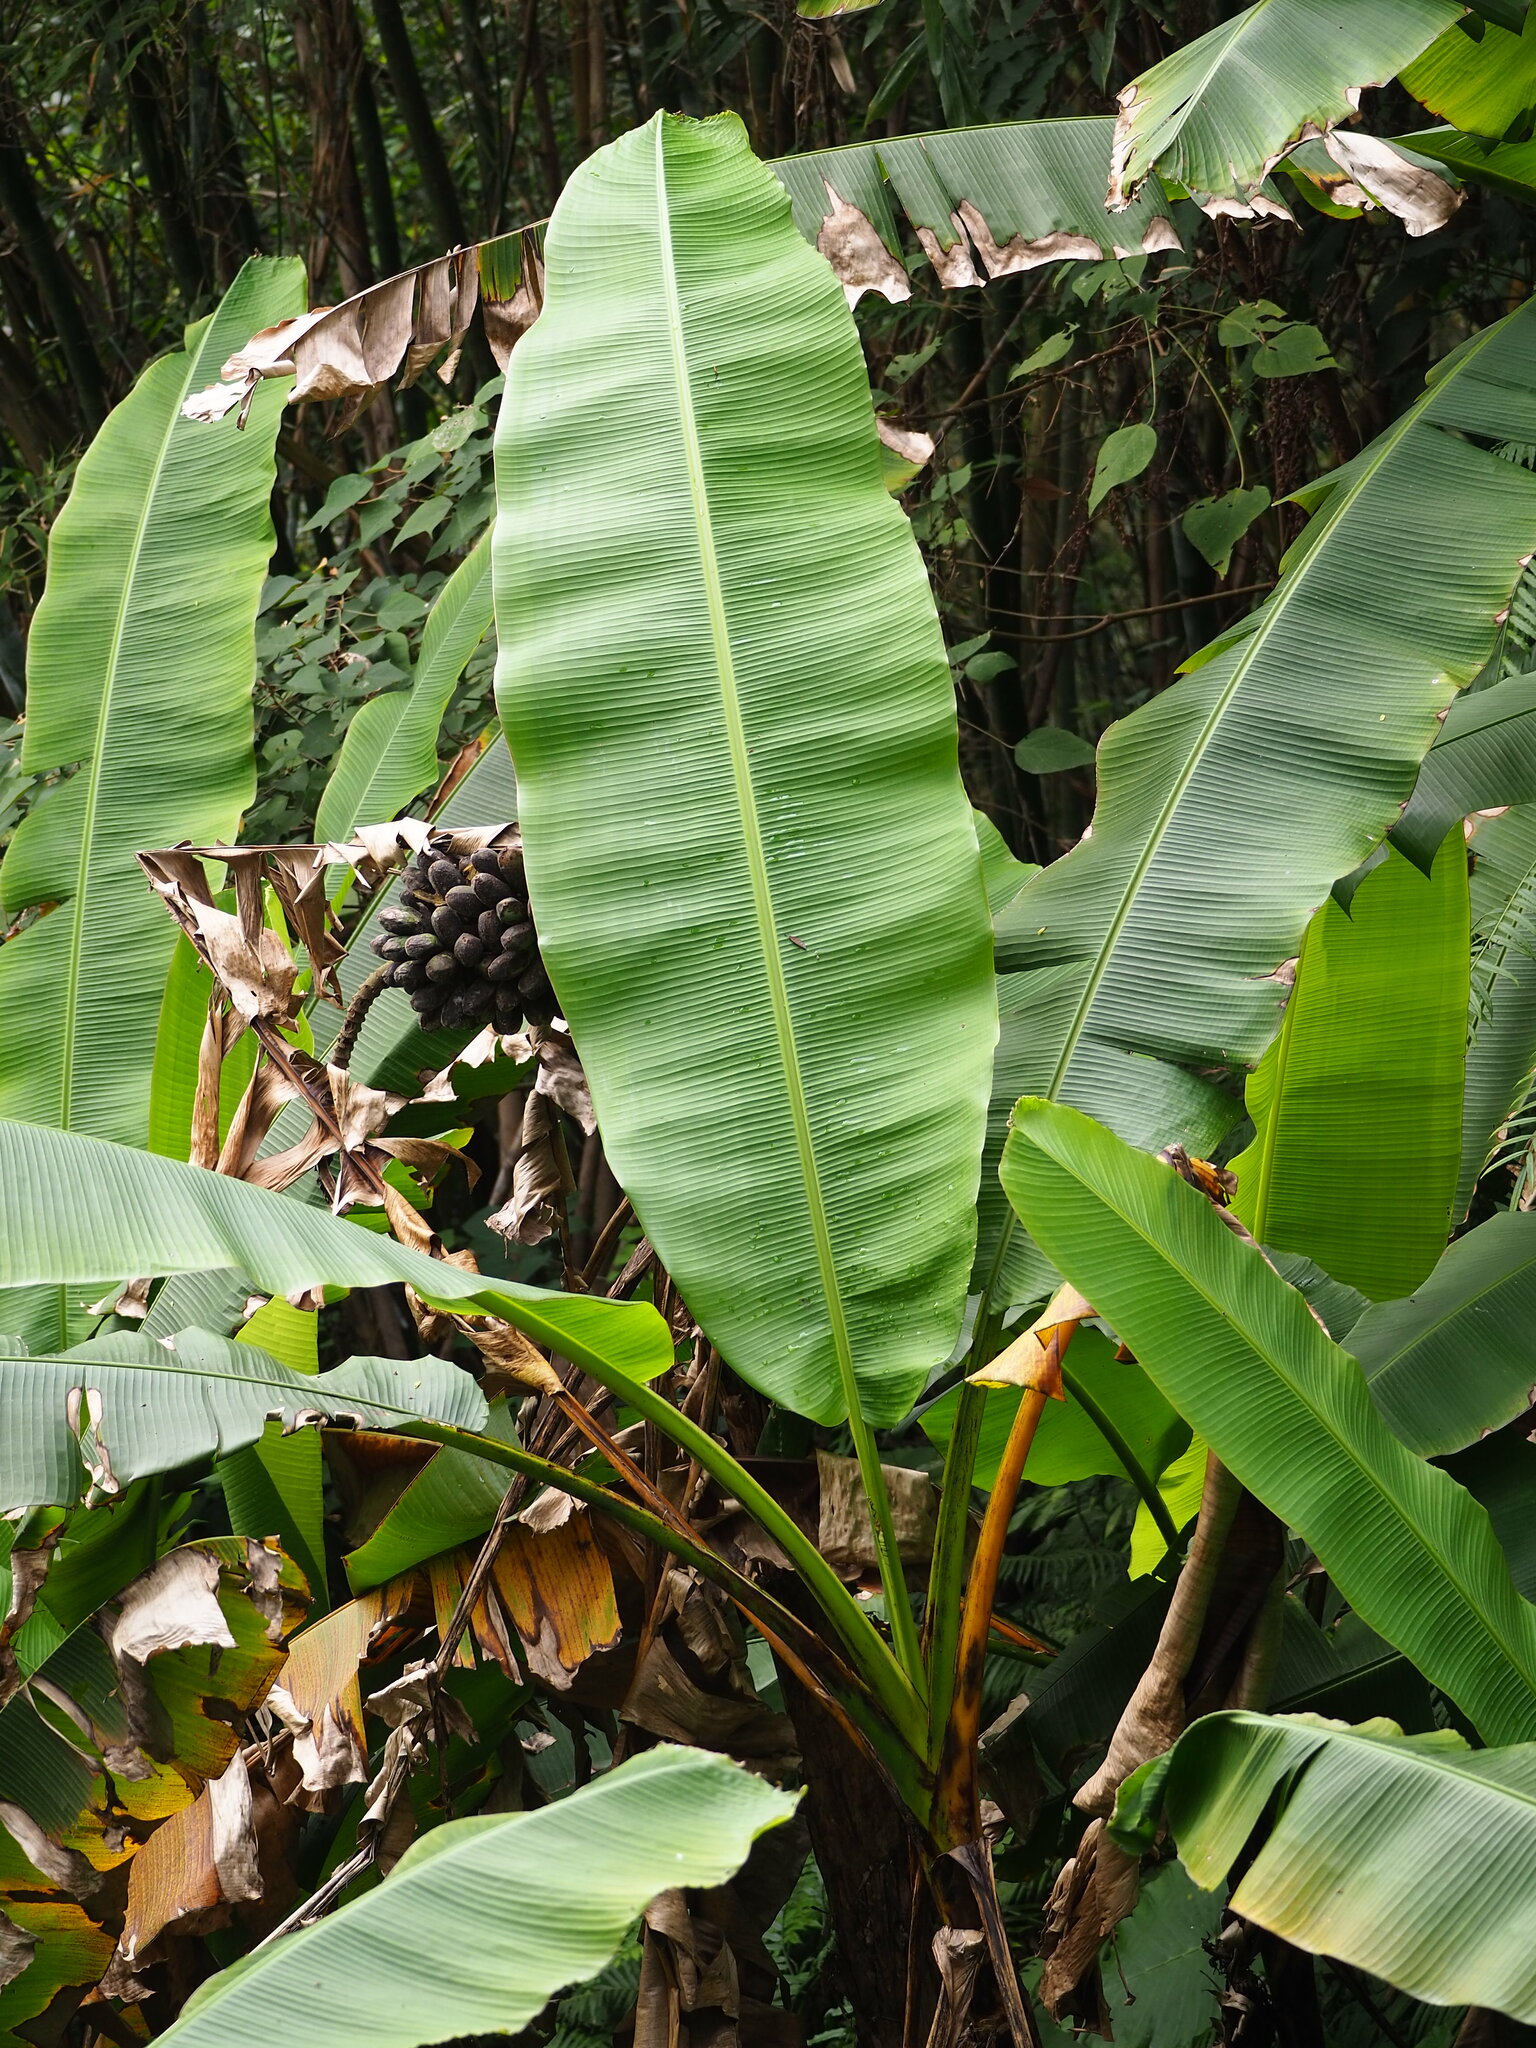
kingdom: Plantae
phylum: Tracheophyta
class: Liliopsida
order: Zingiberales
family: Musaceae
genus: Musa
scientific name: Musa itinerans
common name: Yunnan banana
